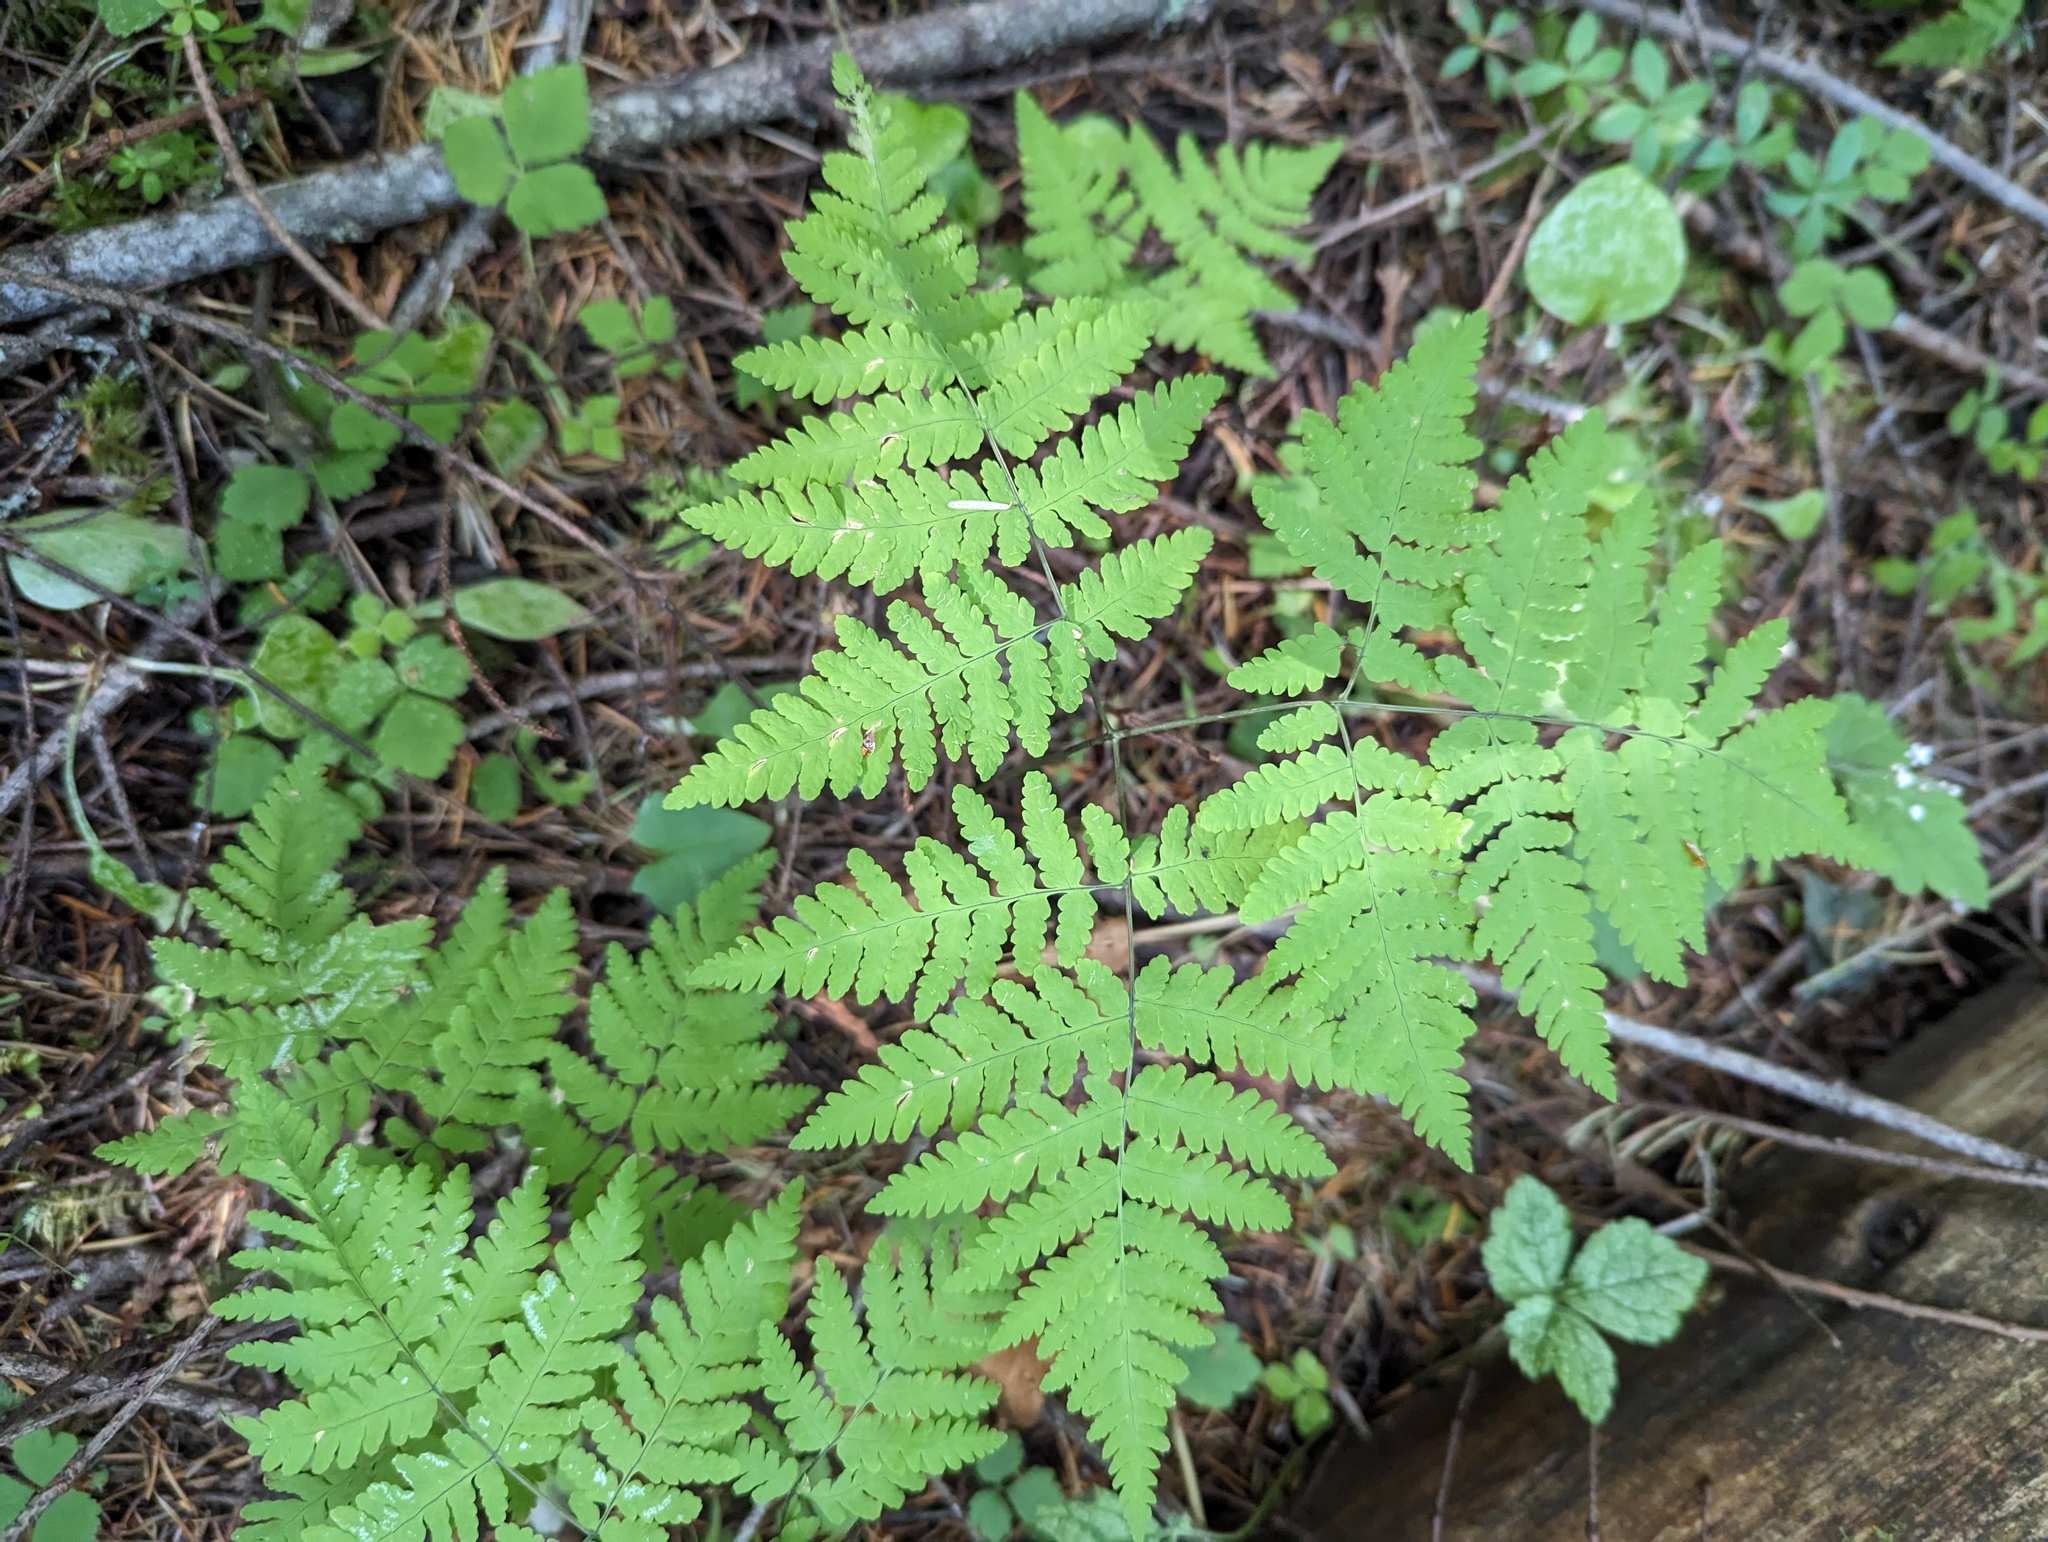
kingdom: Plantae
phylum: Tracheophyta
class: Polypodiopsida
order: Polypodiales
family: Cystopteridaceae
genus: Gymnocarpium
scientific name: Gymnocarpium disjunctum
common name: Western oak fern
